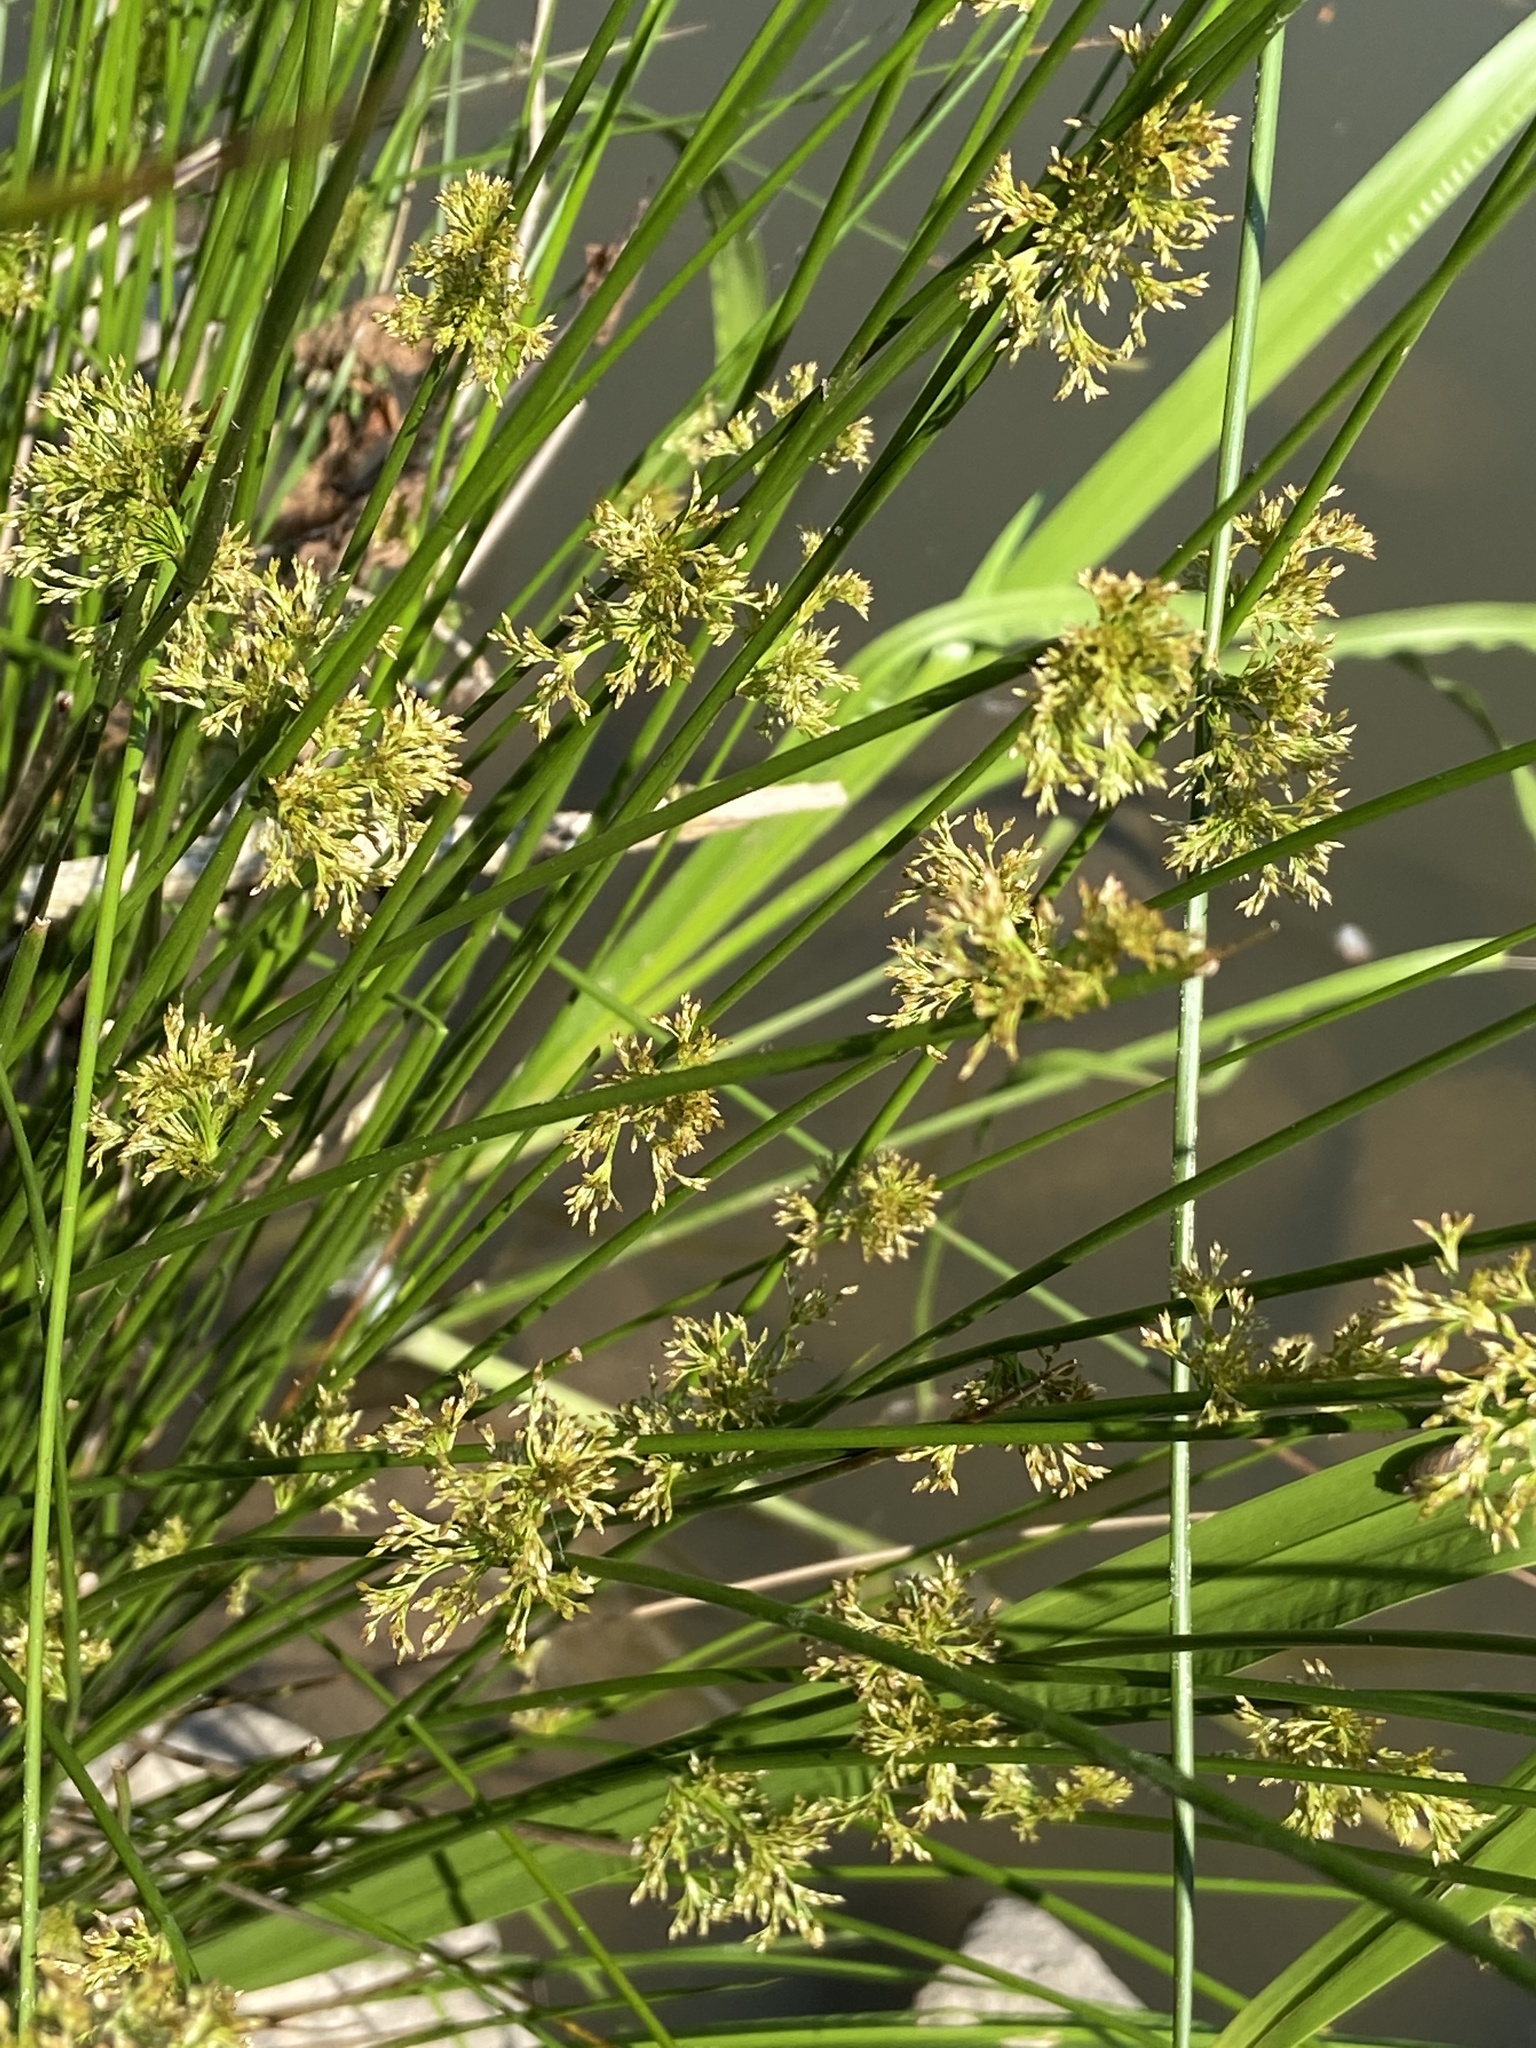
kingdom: Plantae
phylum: Tracheophyta
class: Liliopsida
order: Poales
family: Juncaceae
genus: Juncus
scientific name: Juncus effusus
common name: Soft rush
